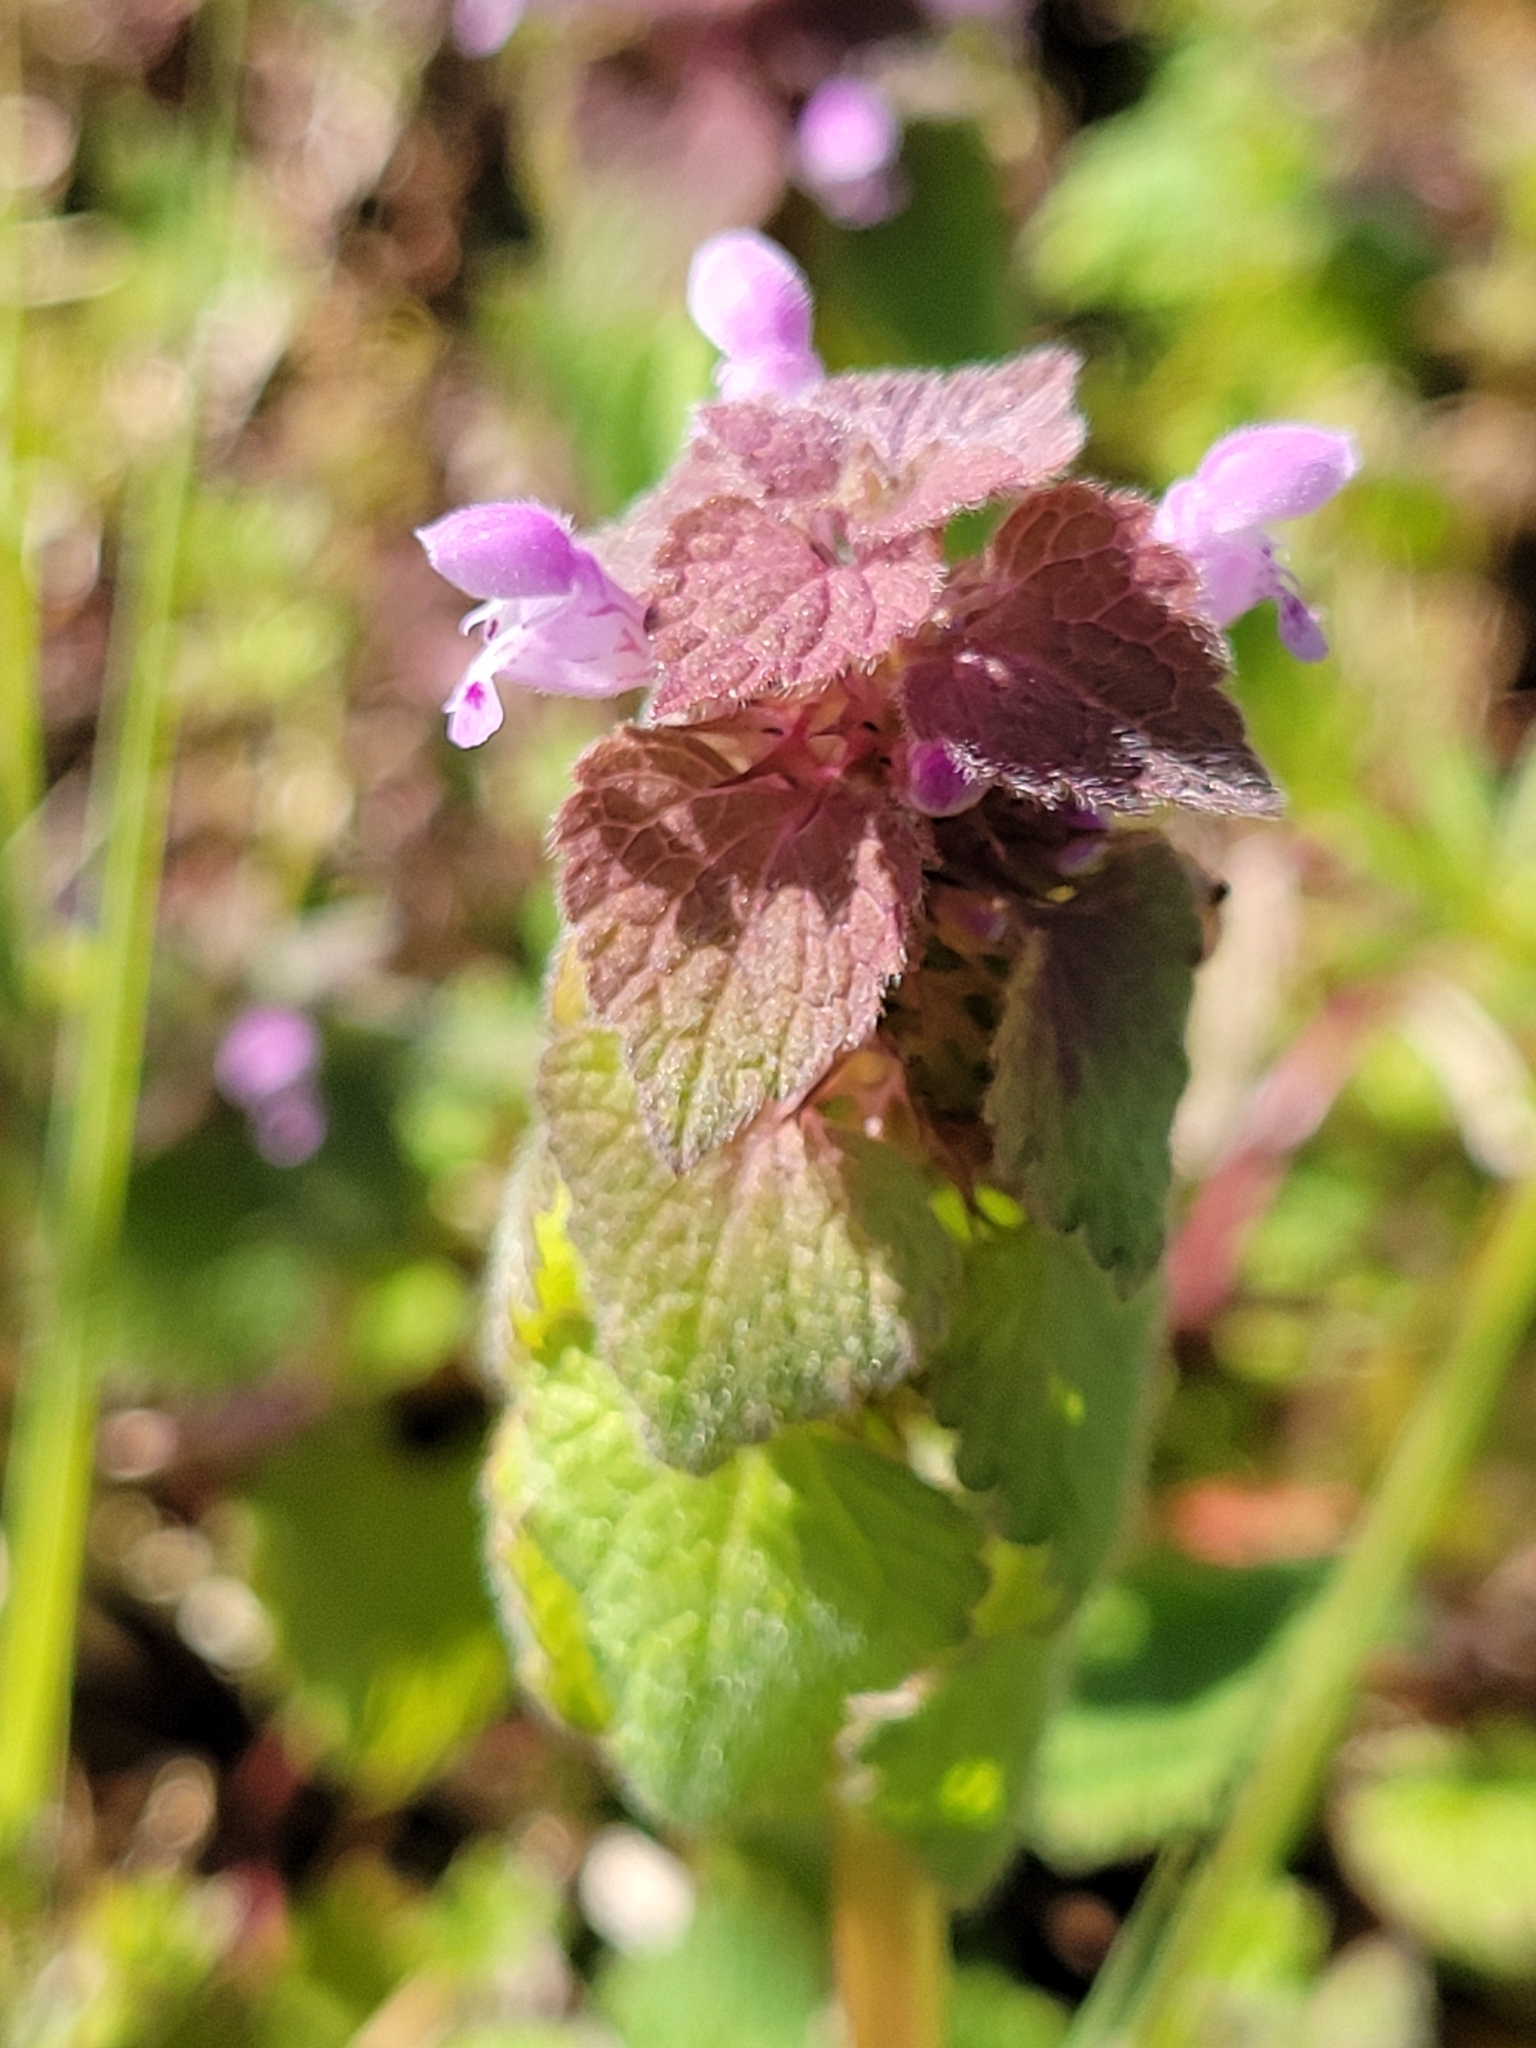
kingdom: Plantae
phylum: Tracheophyta
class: Magnoliopsida
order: Lamiales
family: Lamiaceae
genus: Lamium
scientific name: Lamium purpureum
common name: Red dead-nettle
